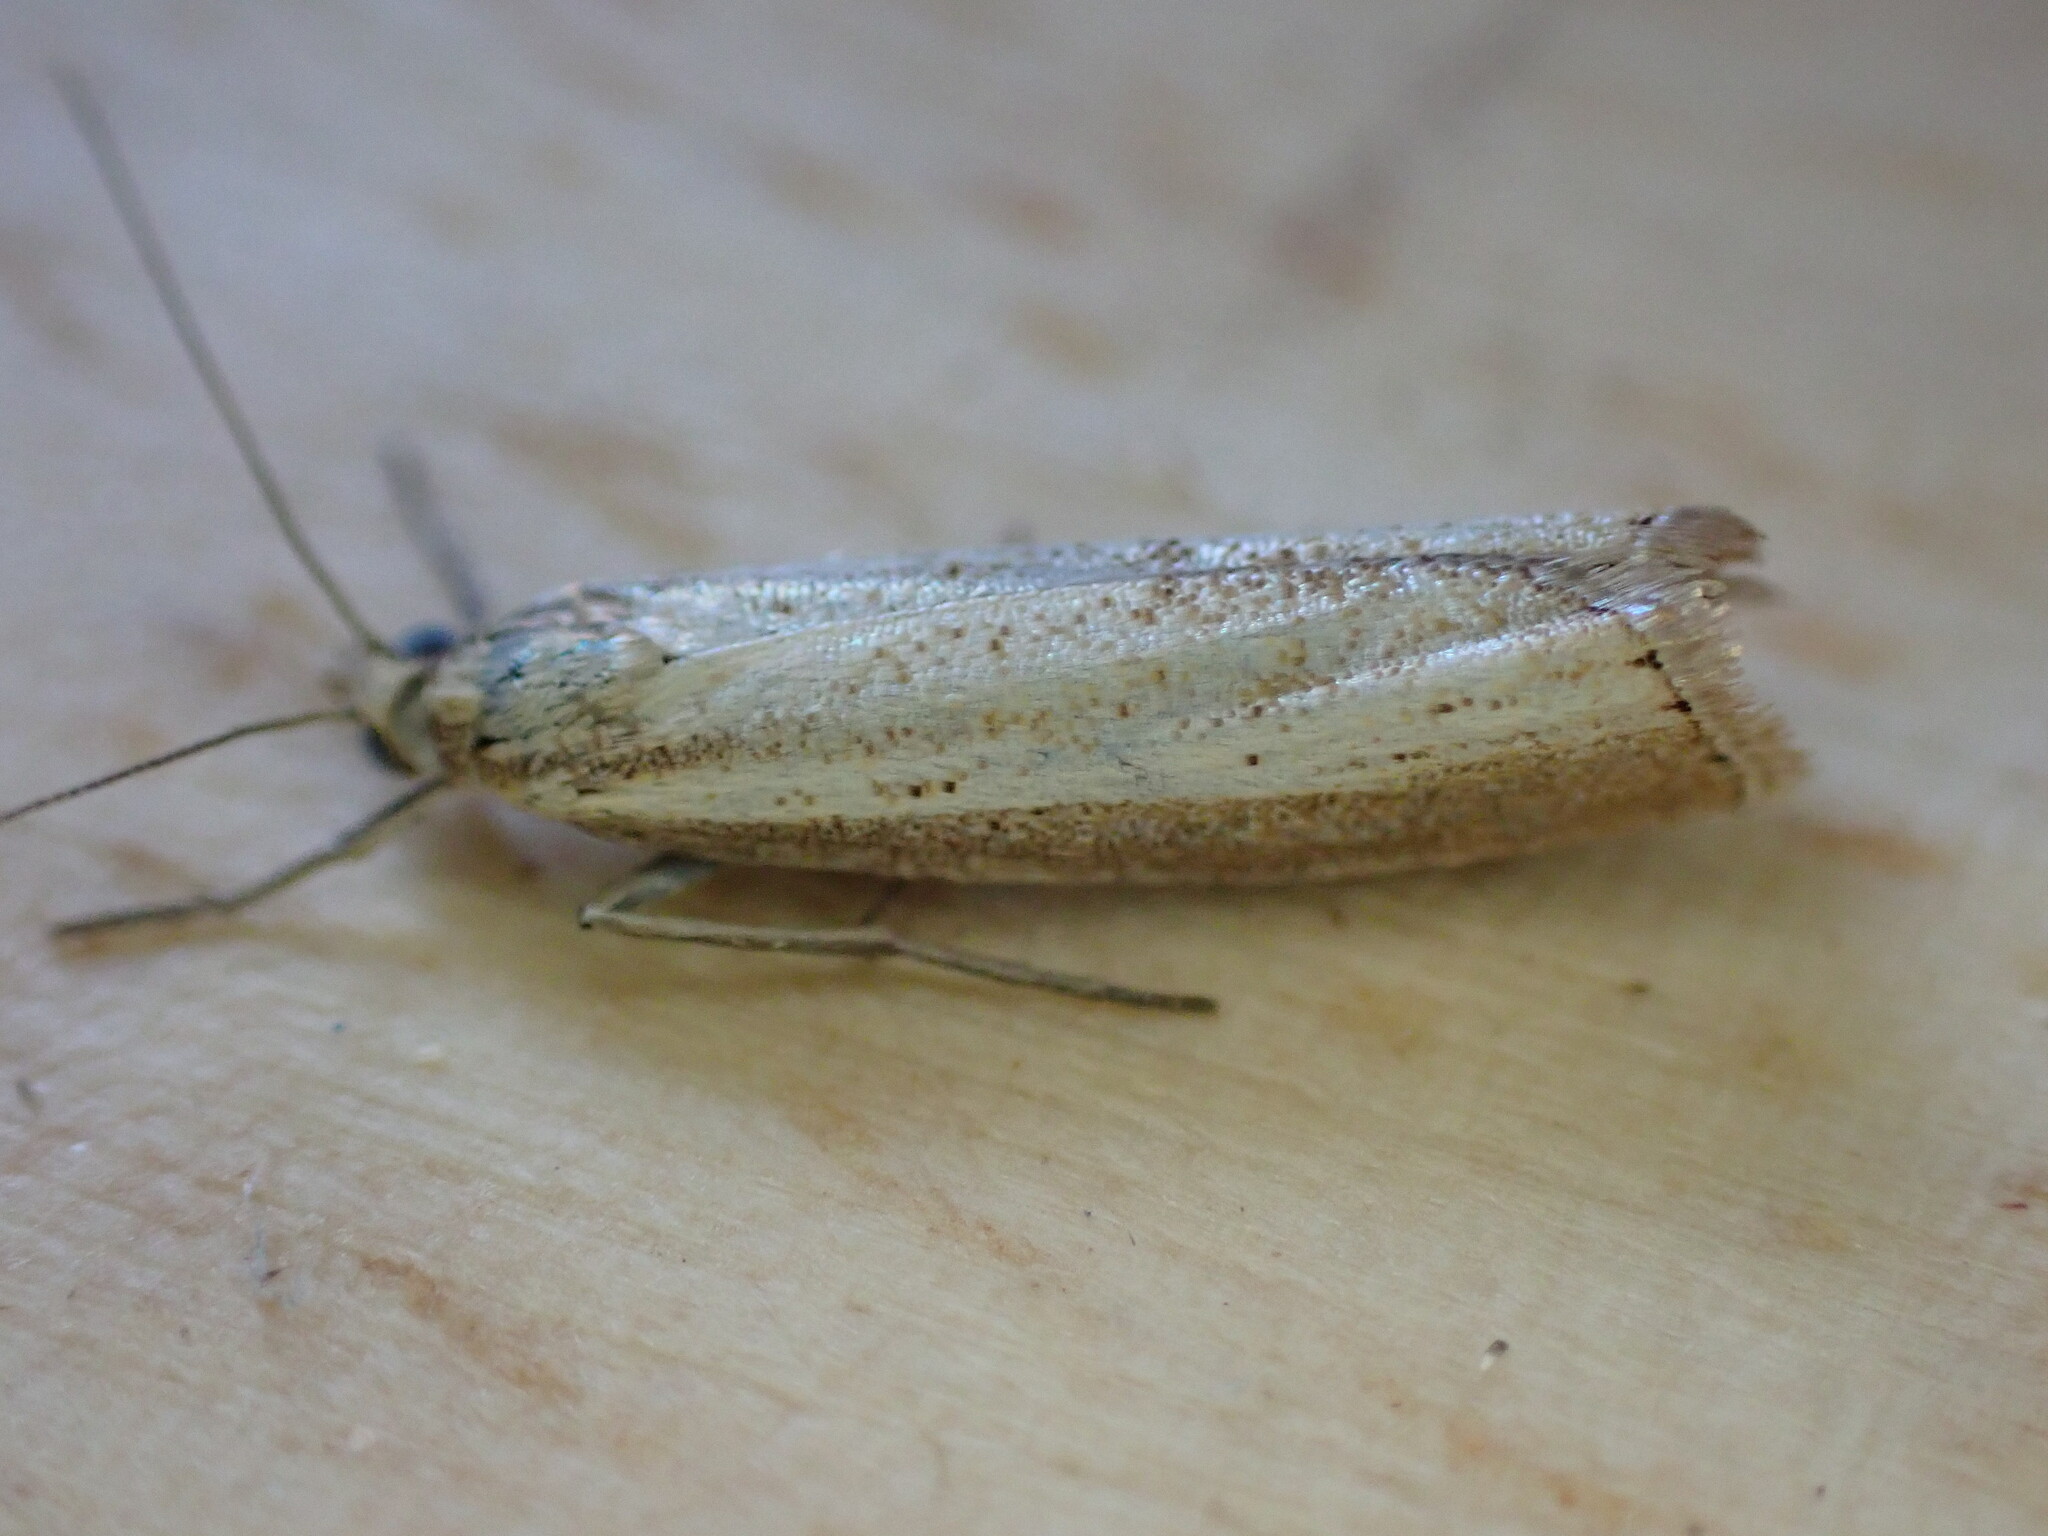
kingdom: Animalia
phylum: Arthropoda
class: Insecta
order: Lepidoptera
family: Crambidae
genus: Agriphila
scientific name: Agriphila straminella
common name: Straw grass-veneer
